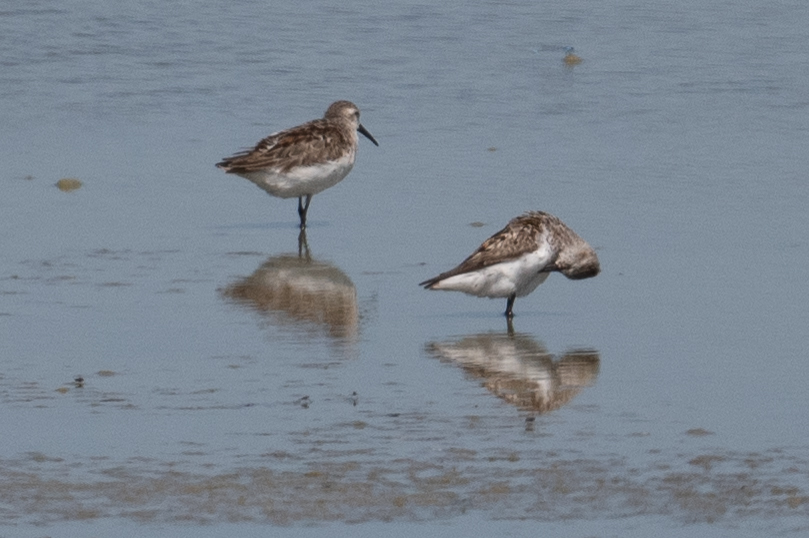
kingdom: Animalia
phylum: Chordata
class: Aves
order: Charadriiformes
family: Scolopacidae
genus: Calidris
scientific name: Calidris mauri
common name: Western sandpiper
